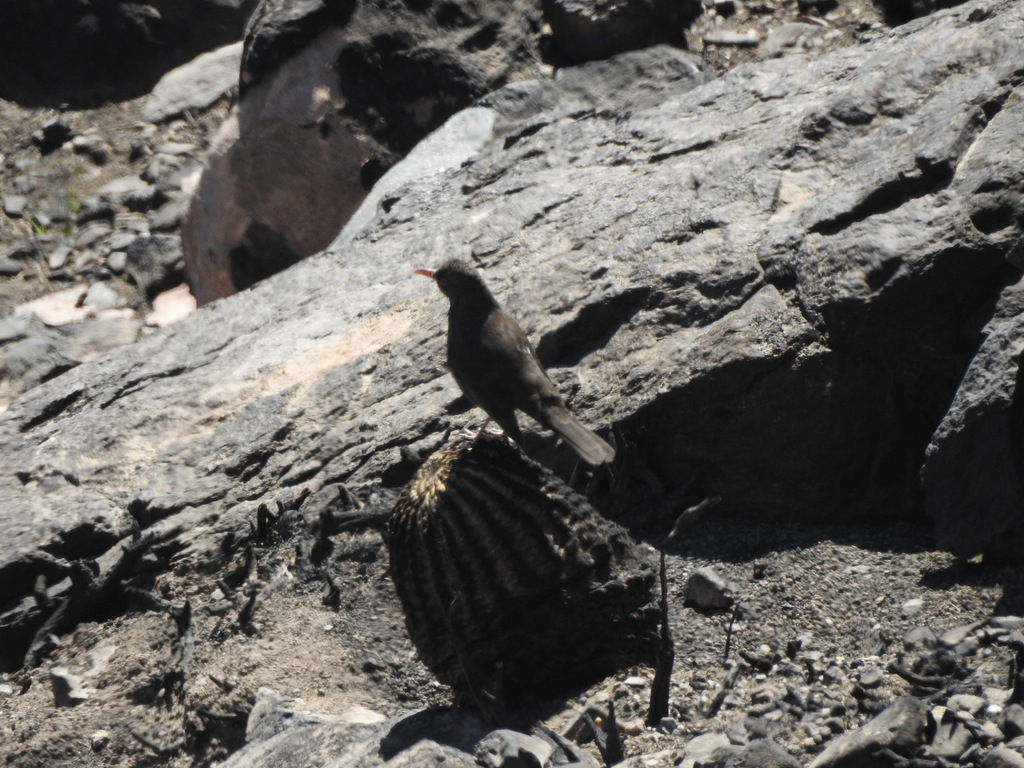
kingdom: Animalia
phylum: Chordata
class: Aves
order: Passeriformes
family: Turdidae
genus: Turdus
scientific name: Turdus chiguanco
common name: Chiguanco thrush
